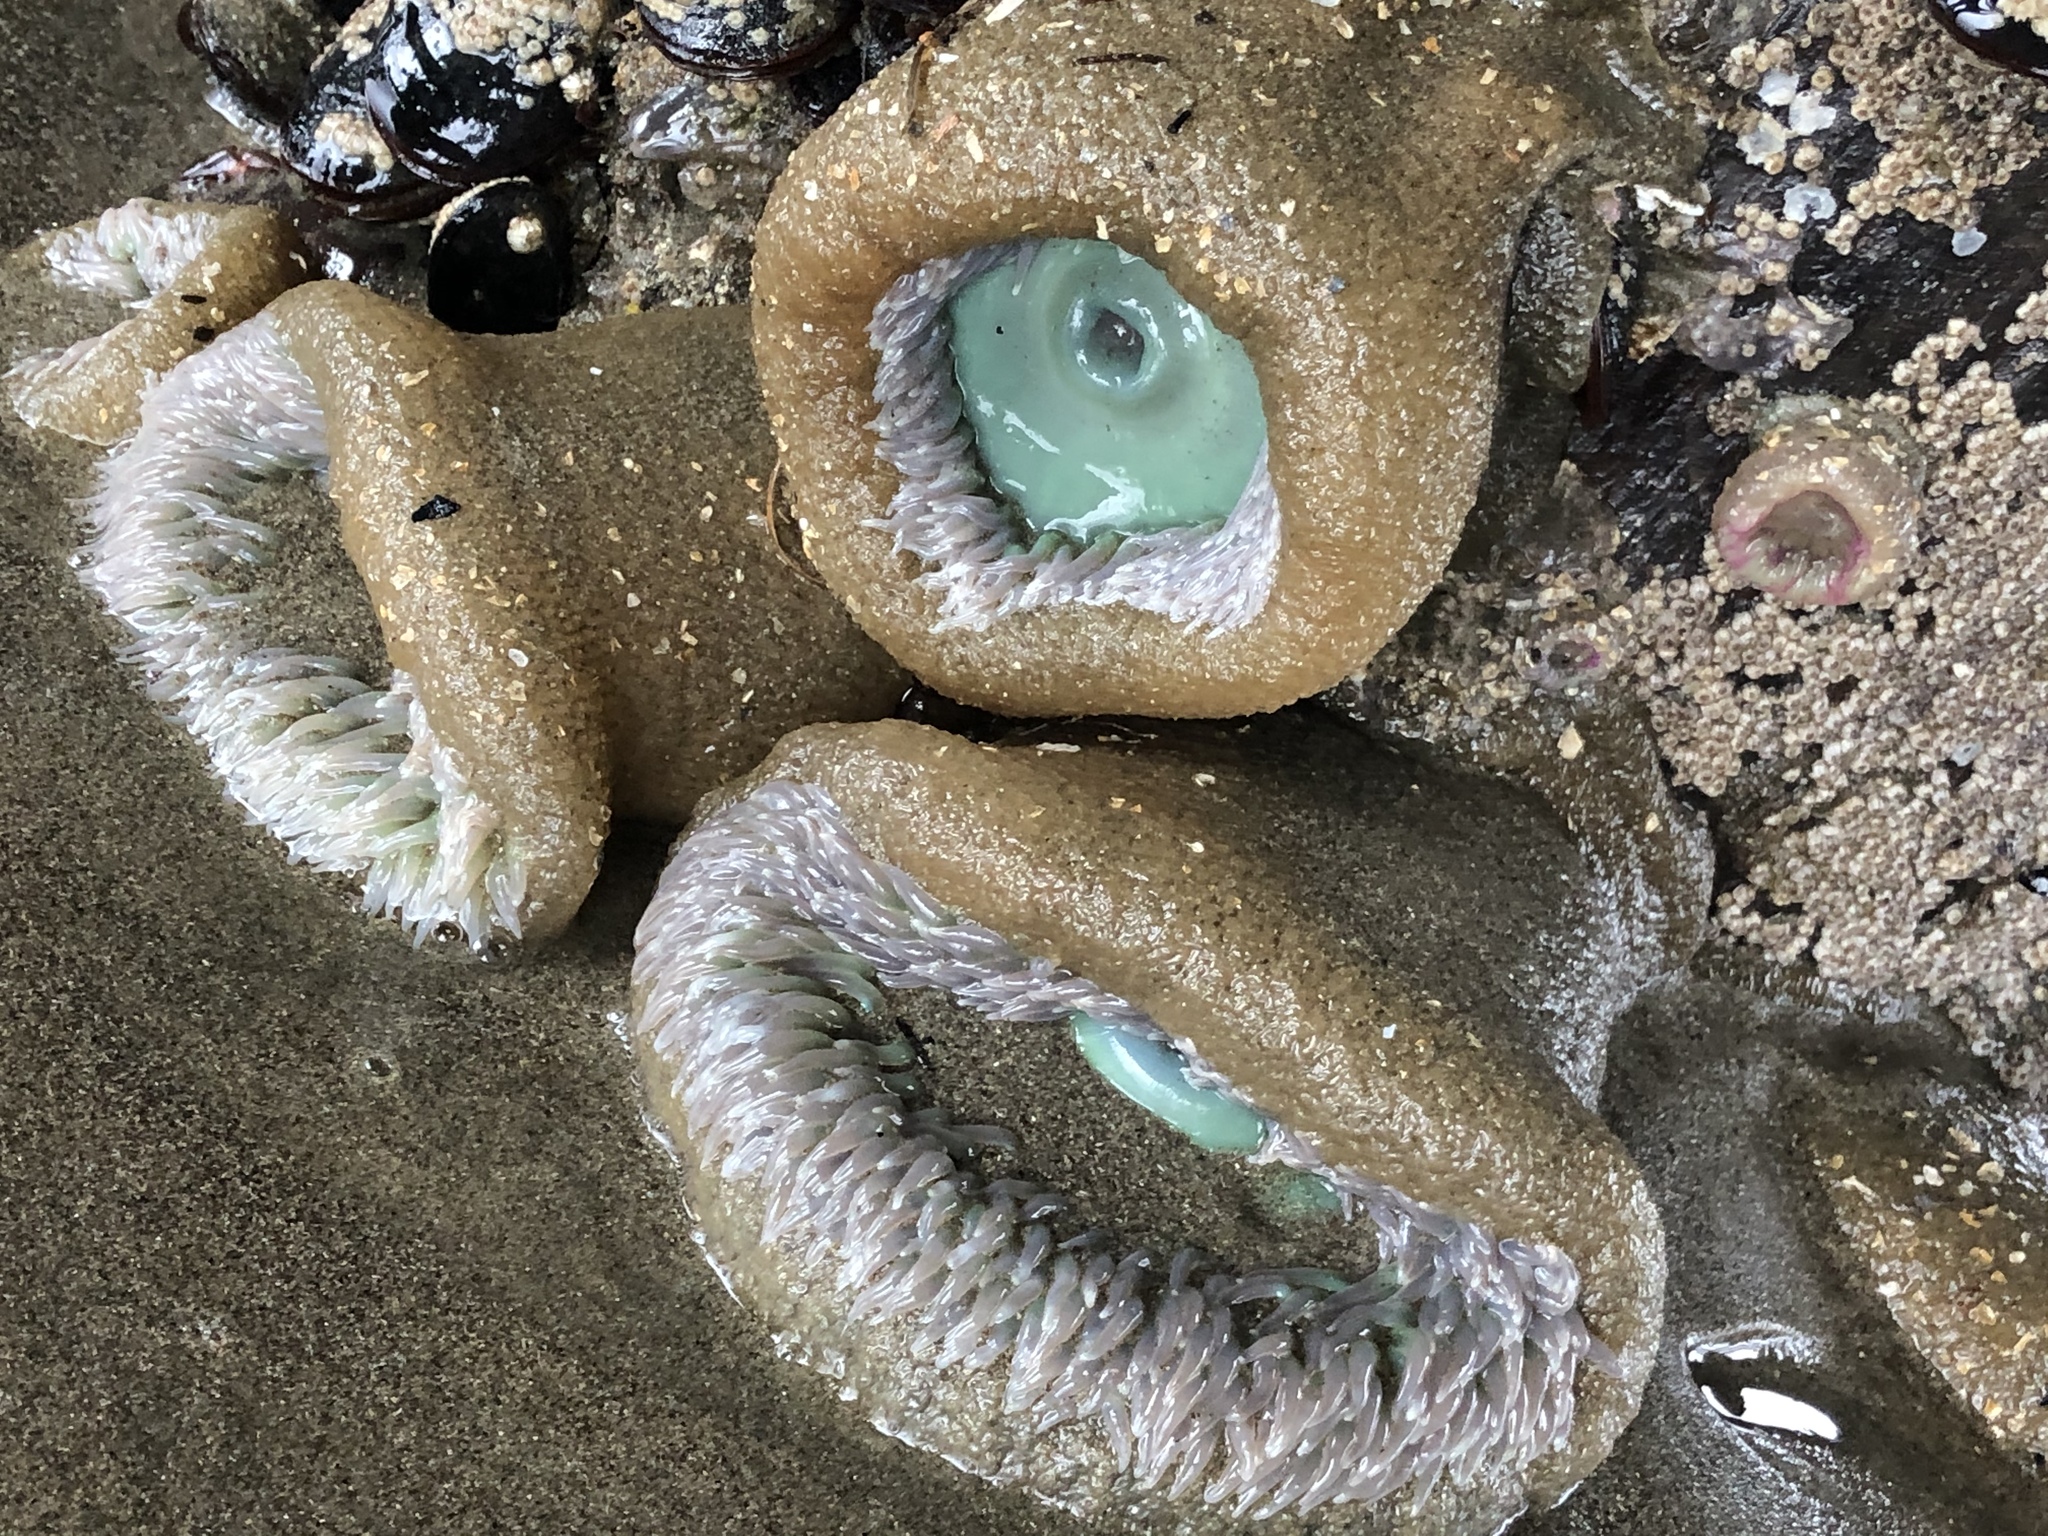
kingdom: Animalia
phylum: Cnidaria
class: Anthozoa
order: Actiniaria
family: Actiniidae
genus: Anthopleura
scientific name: Anthopleura xanthogrammica
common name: Giant green anemone
